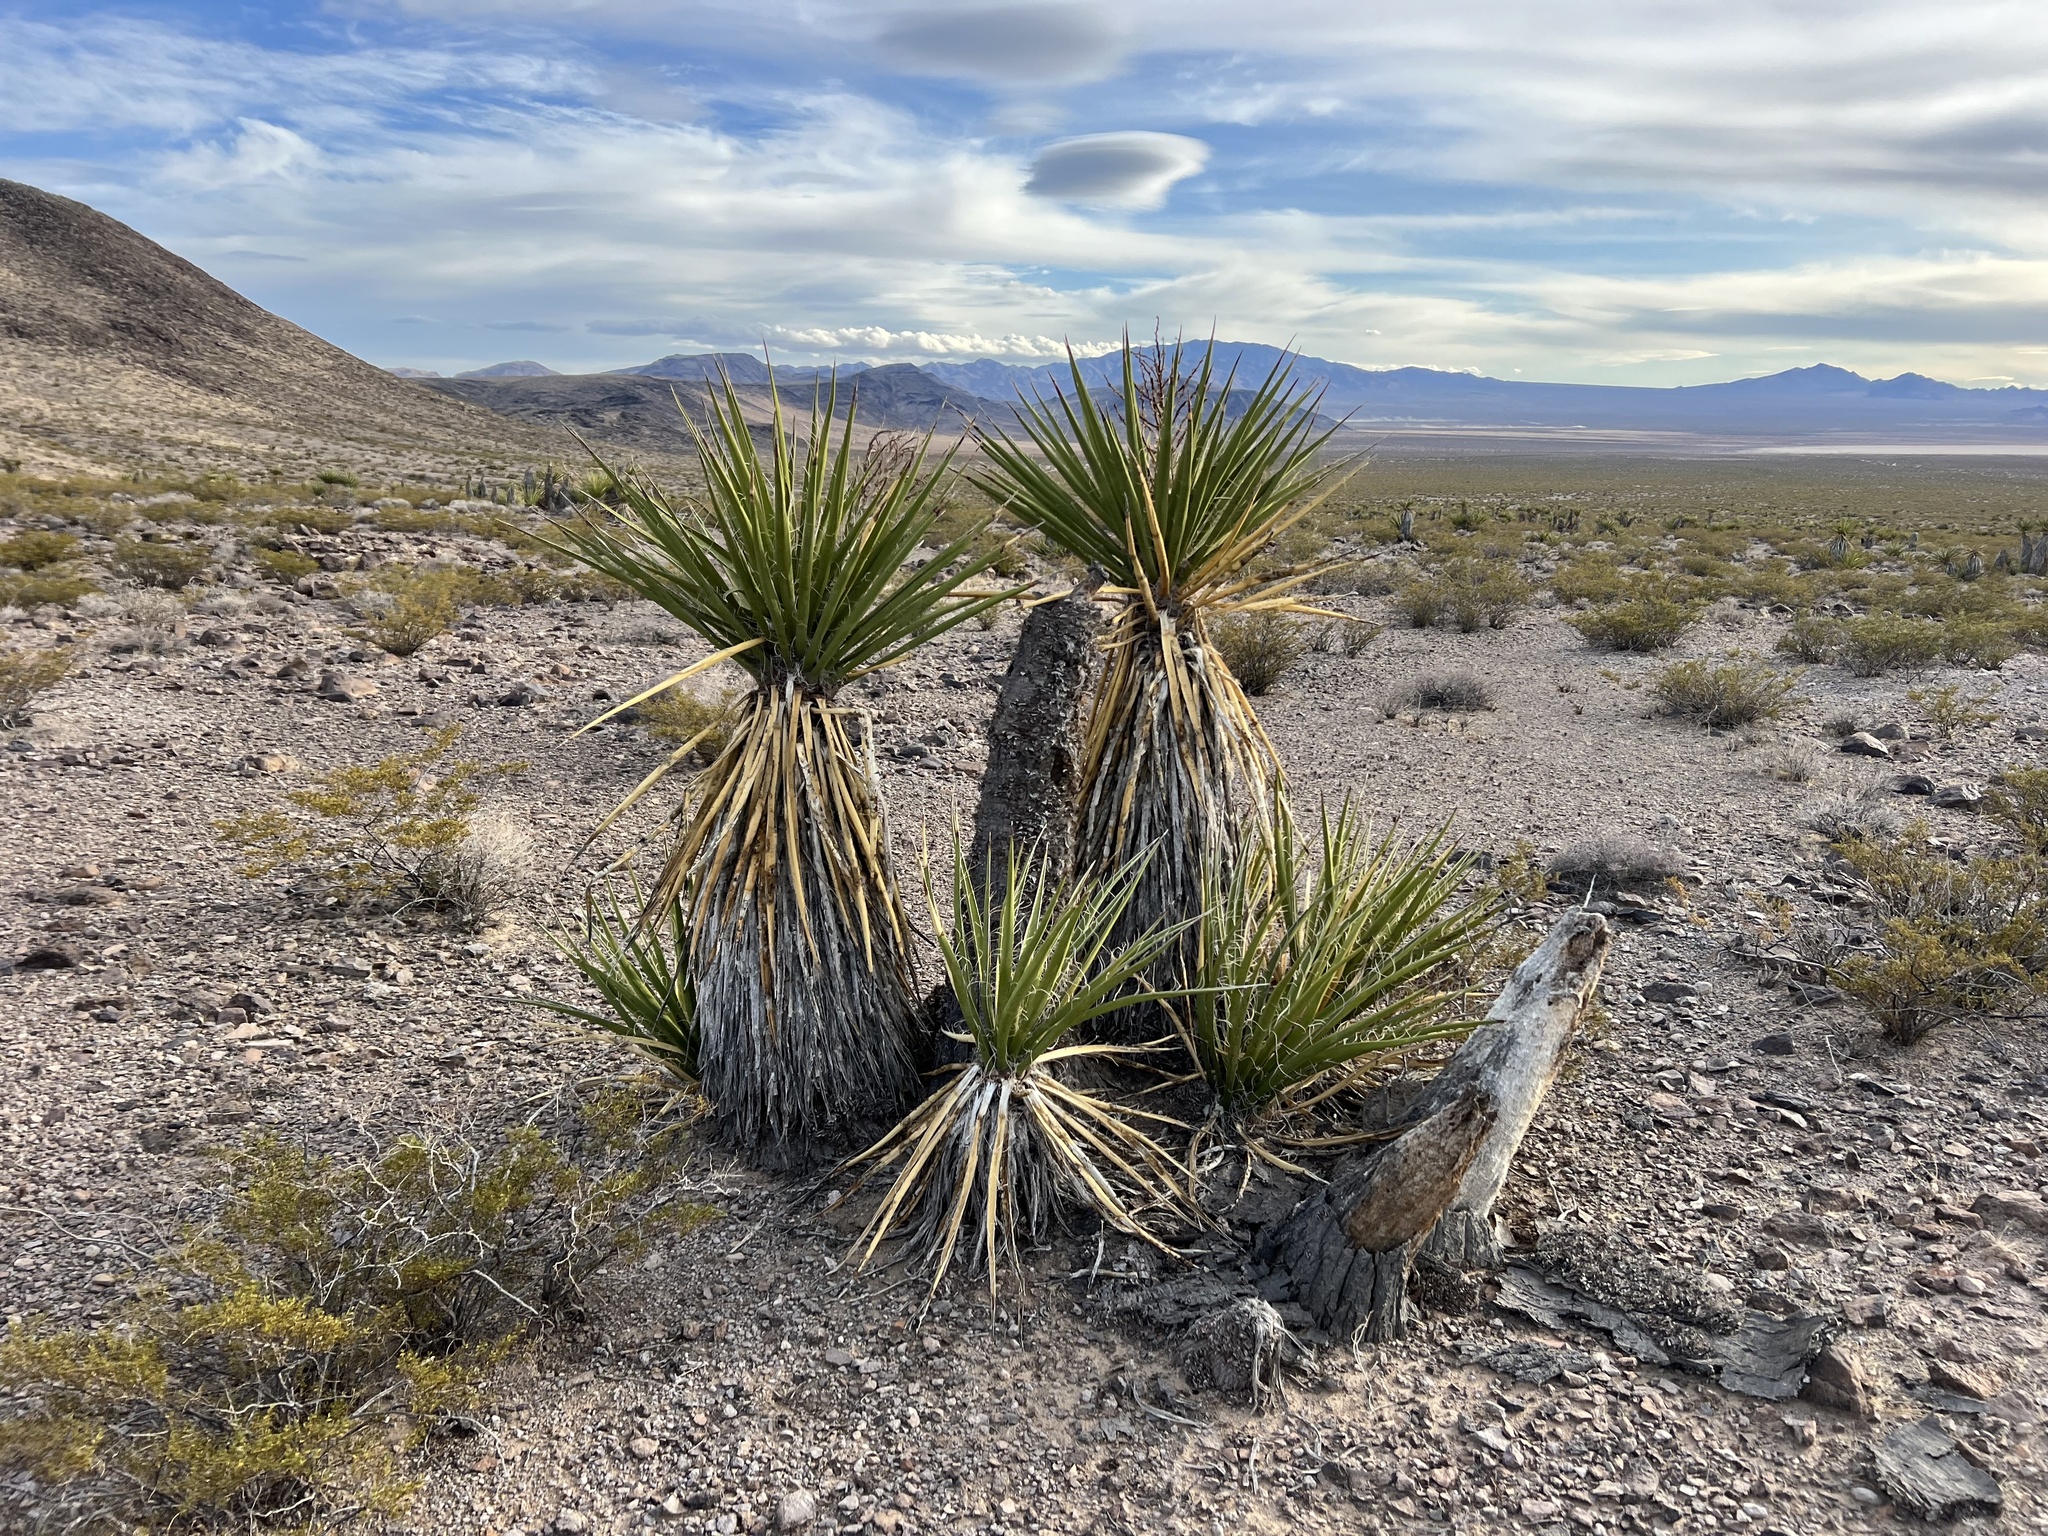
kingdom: Plantae
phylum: Tracheophyta
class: Liliopsida
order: Asparagales
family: Asparagaceae
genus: Yucca
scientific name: Yucca schidigera
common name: Mojave yucca
